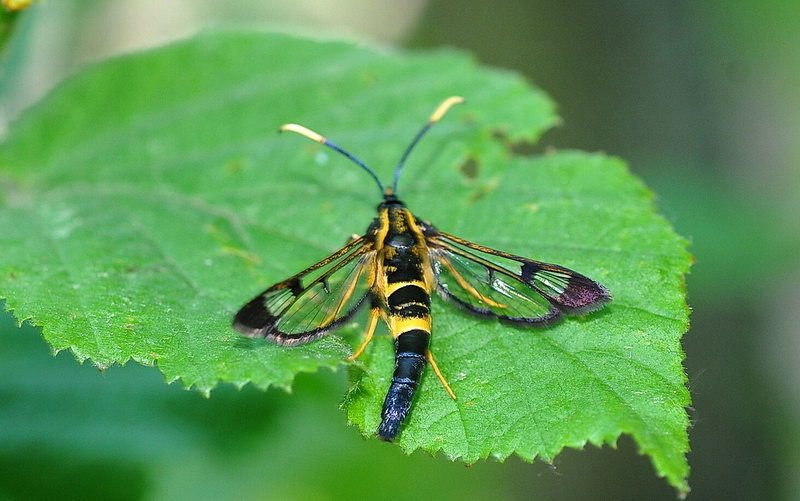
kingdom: Animalia
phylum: Arthropoda
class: Insecta
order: Lepidoptera
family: Sesiidae
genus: Synanthedon
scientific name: Synanthedon mesiaeformis
